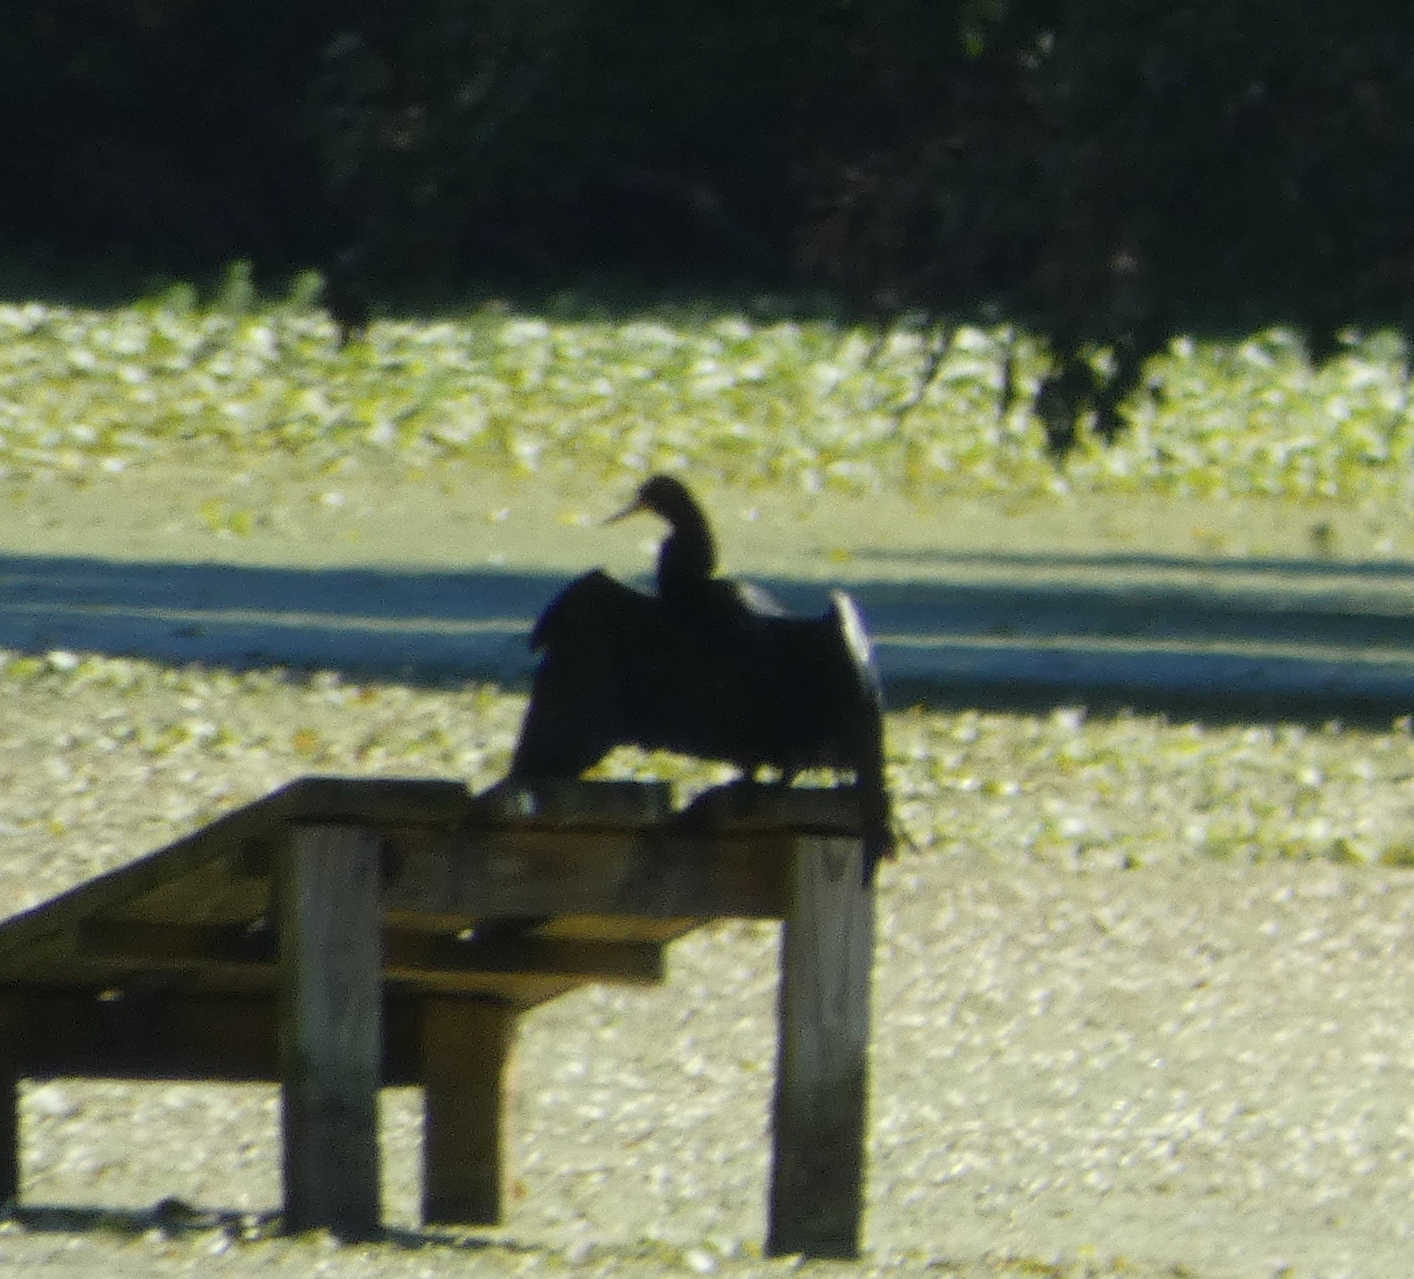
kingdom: Animalia
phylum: Chordata
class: Aves
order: Suliformes
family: Anhingidae
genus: Anhinga
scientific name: Anhinga anhinga
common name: Anhinga
